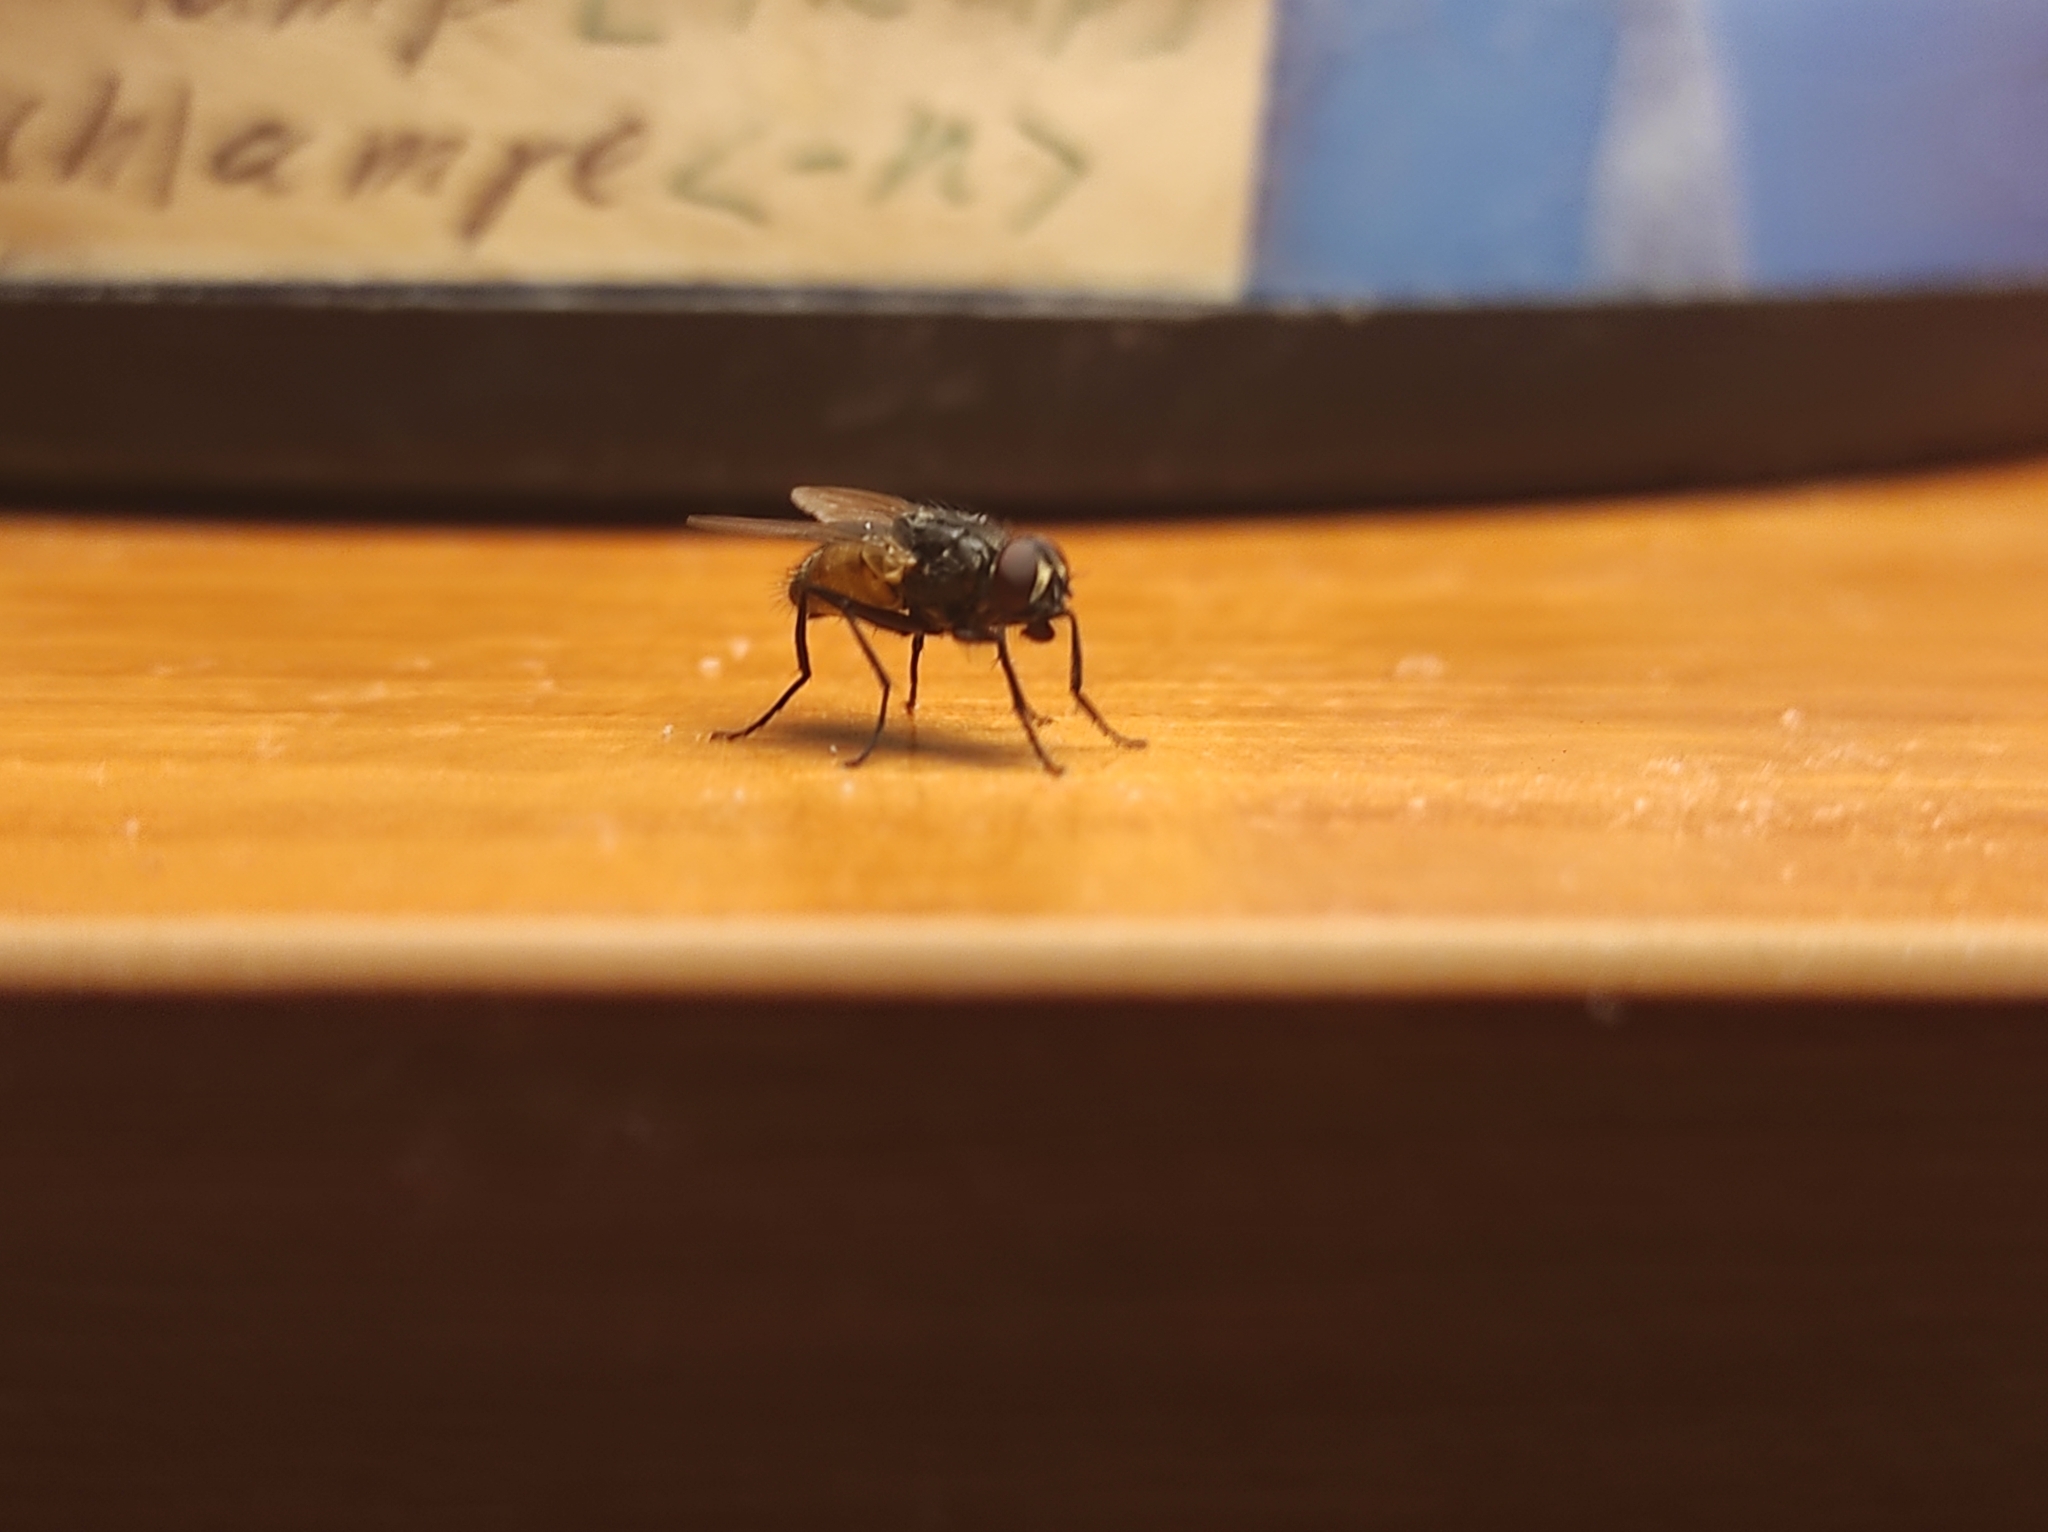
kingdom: Animalia
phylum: Arthropoda
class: Insecta
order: Diptera
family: Muscidae
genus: Musca
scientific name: Musca domestica
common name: House fly
